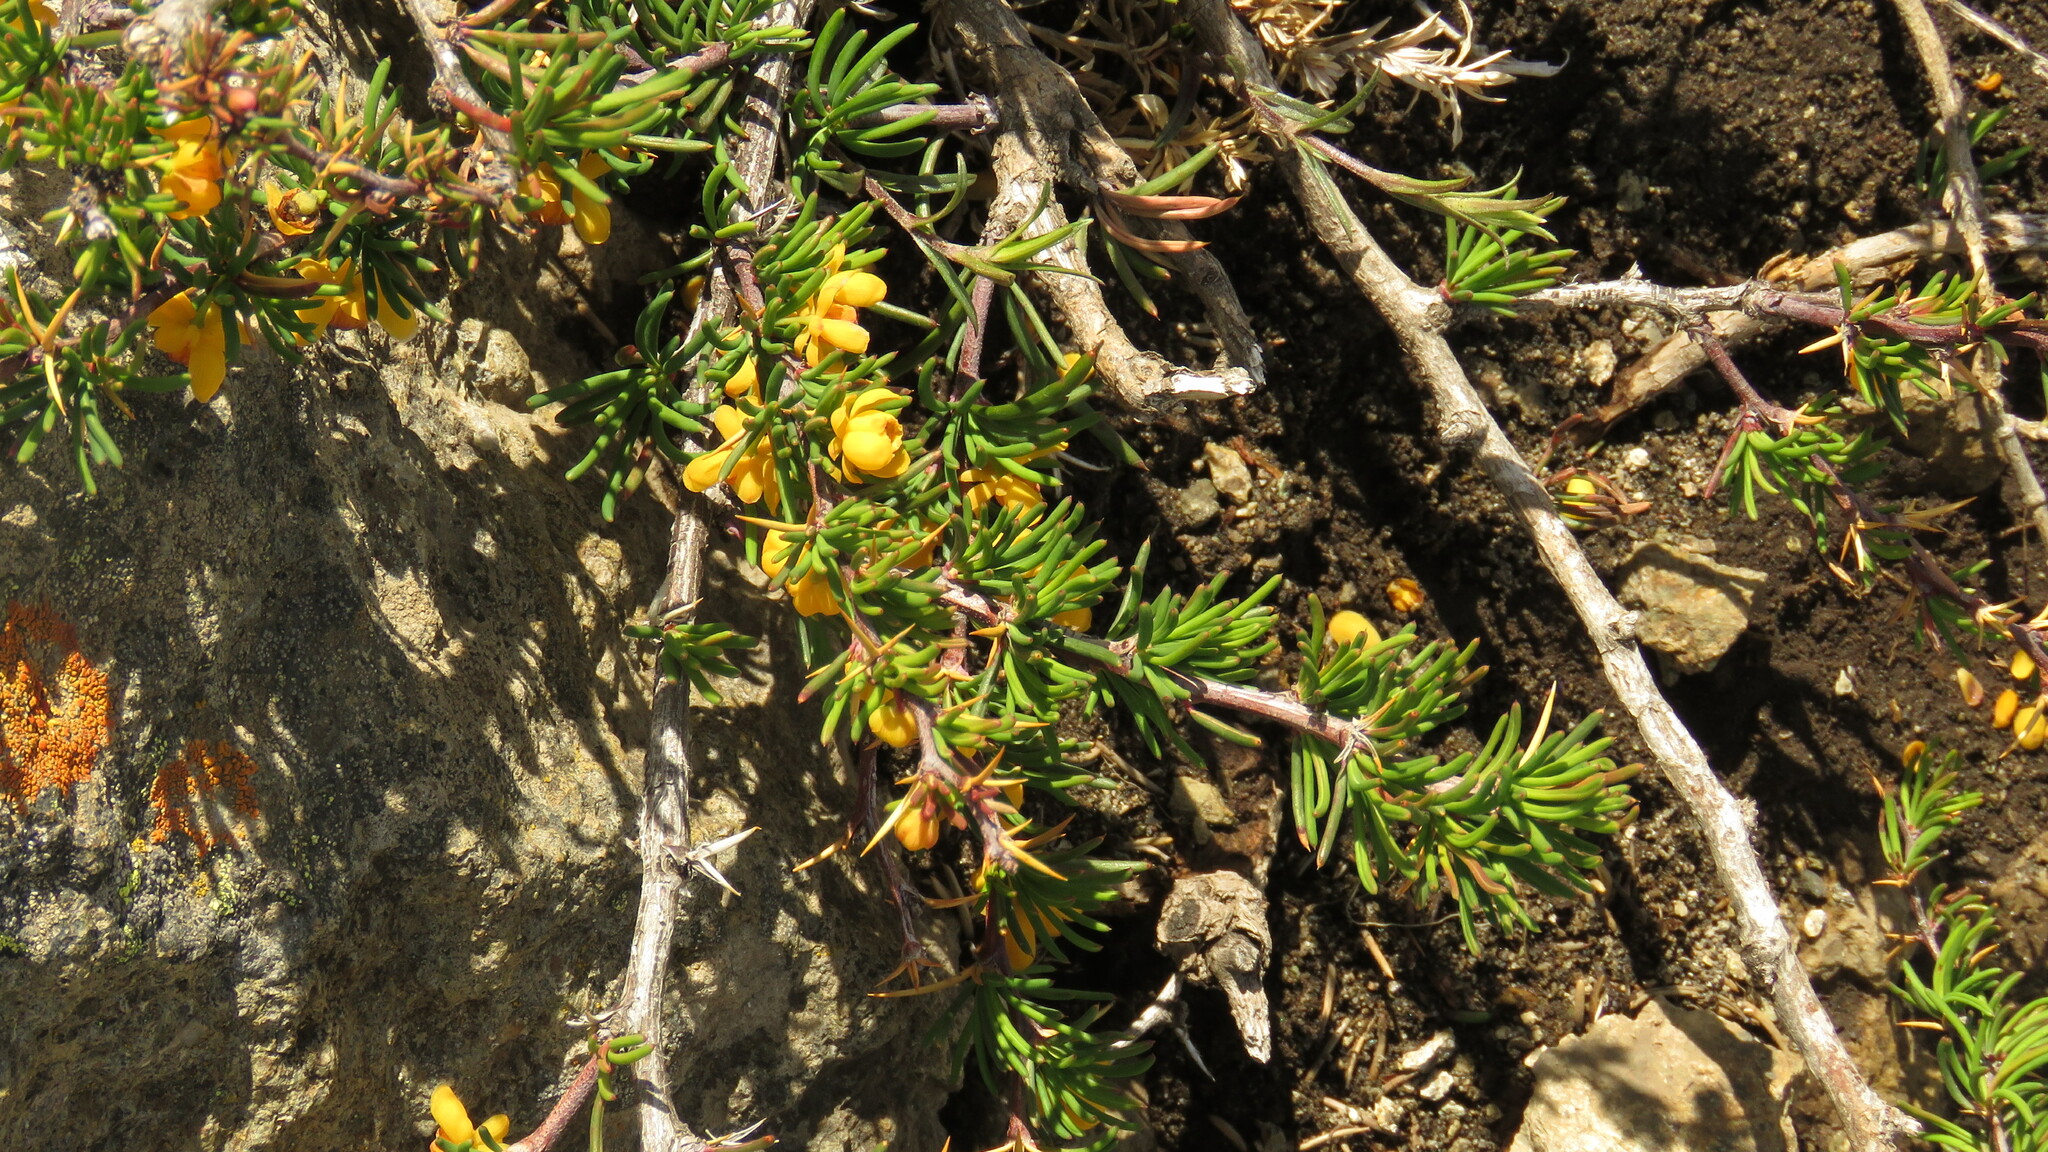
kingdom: Plantae
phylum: Tracheophyta
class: Magnoliopsida
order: Ranunculales
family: Berberidaceae
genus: Berberis
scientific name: Berberis empetrifolia
